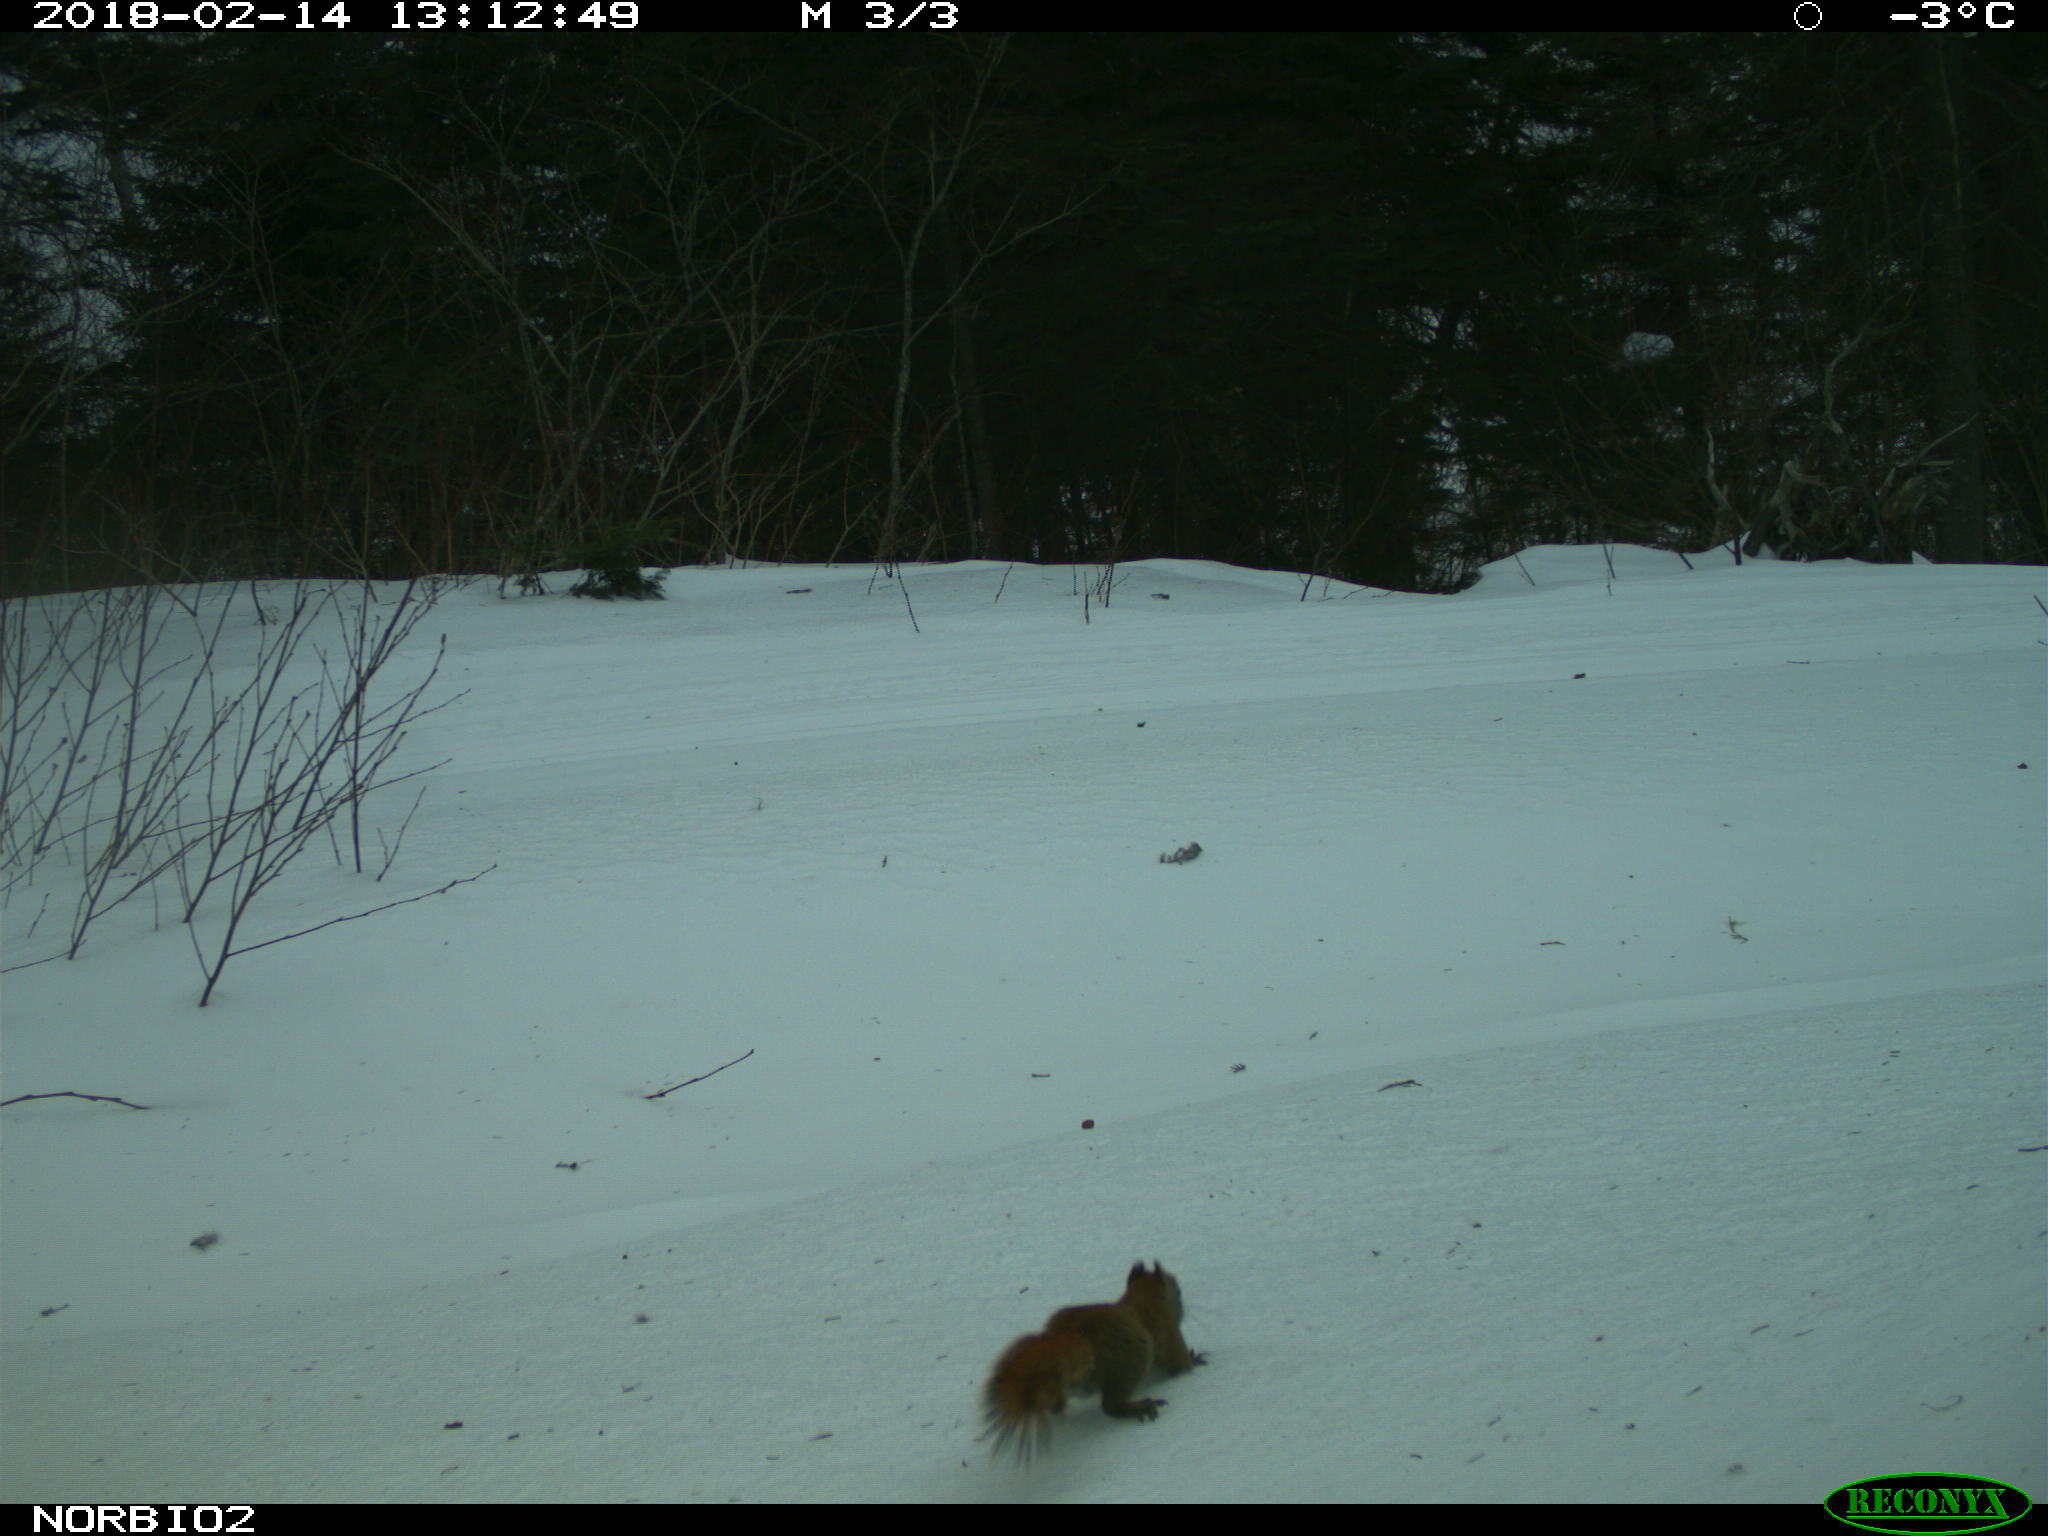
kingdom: Animalia
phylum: Chordata
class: Mammalia
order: Rodentia
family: Sciuridae
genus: Tamiasciurus
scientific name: Tamiasciurus hudsonicus
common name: Red squirrel
